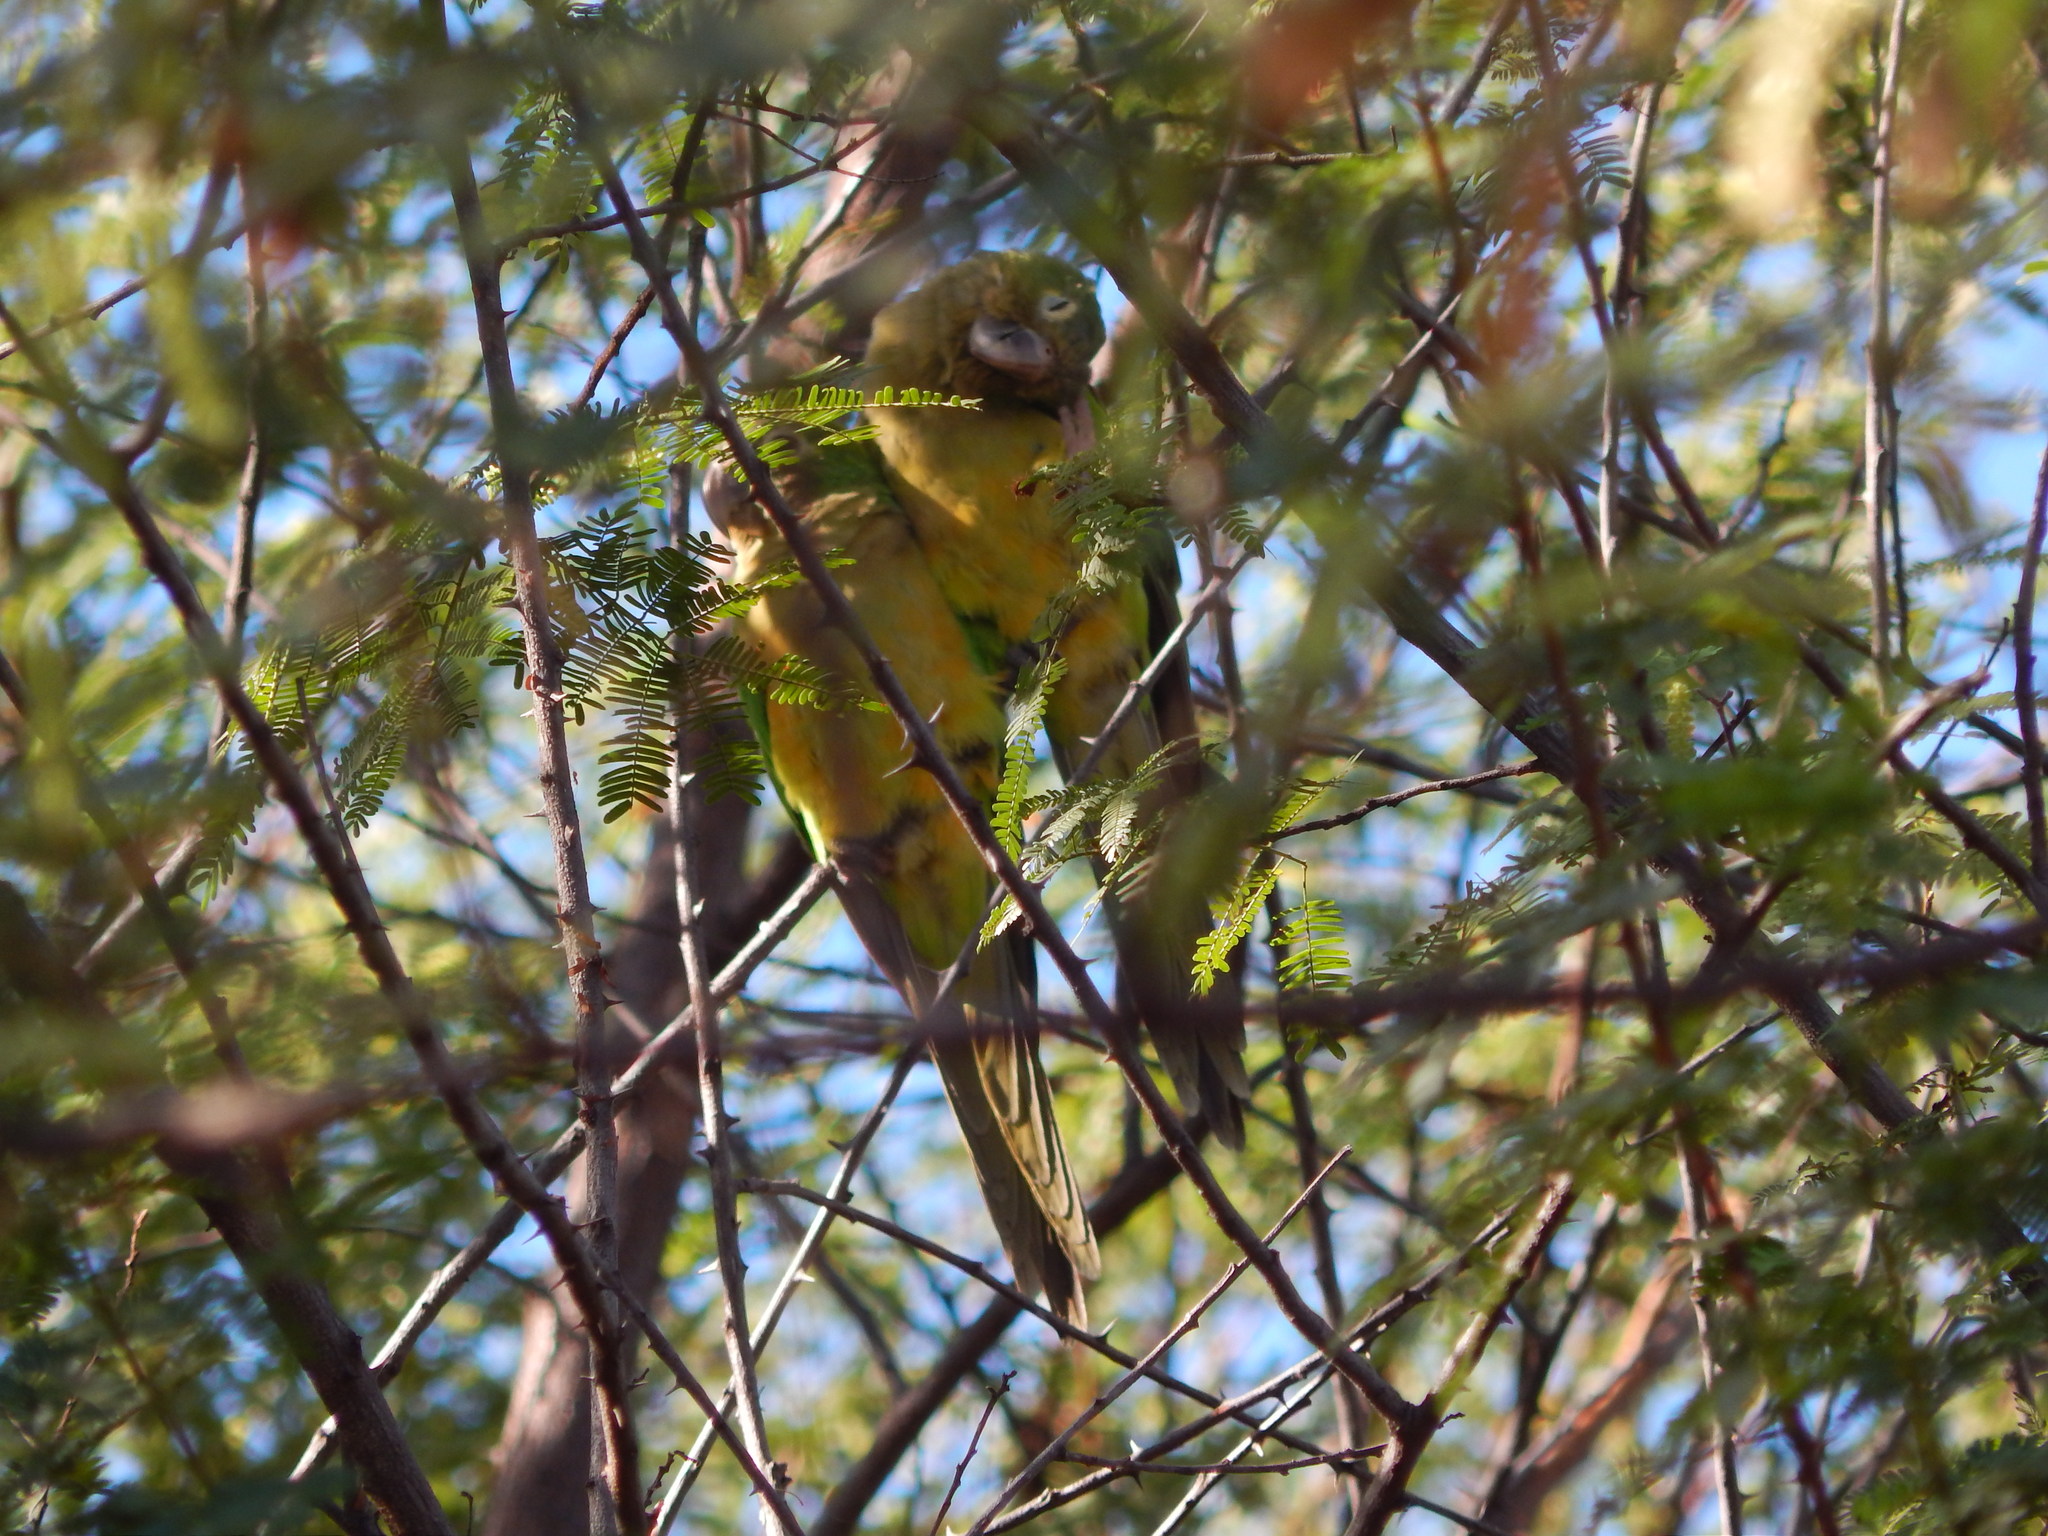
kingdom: Animalia
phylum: Chordata
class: Aves
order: Psittaciformes
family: Psittacidae
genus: Aratinga
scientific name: Aratinga cactorum
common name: Caatinga parakeet
